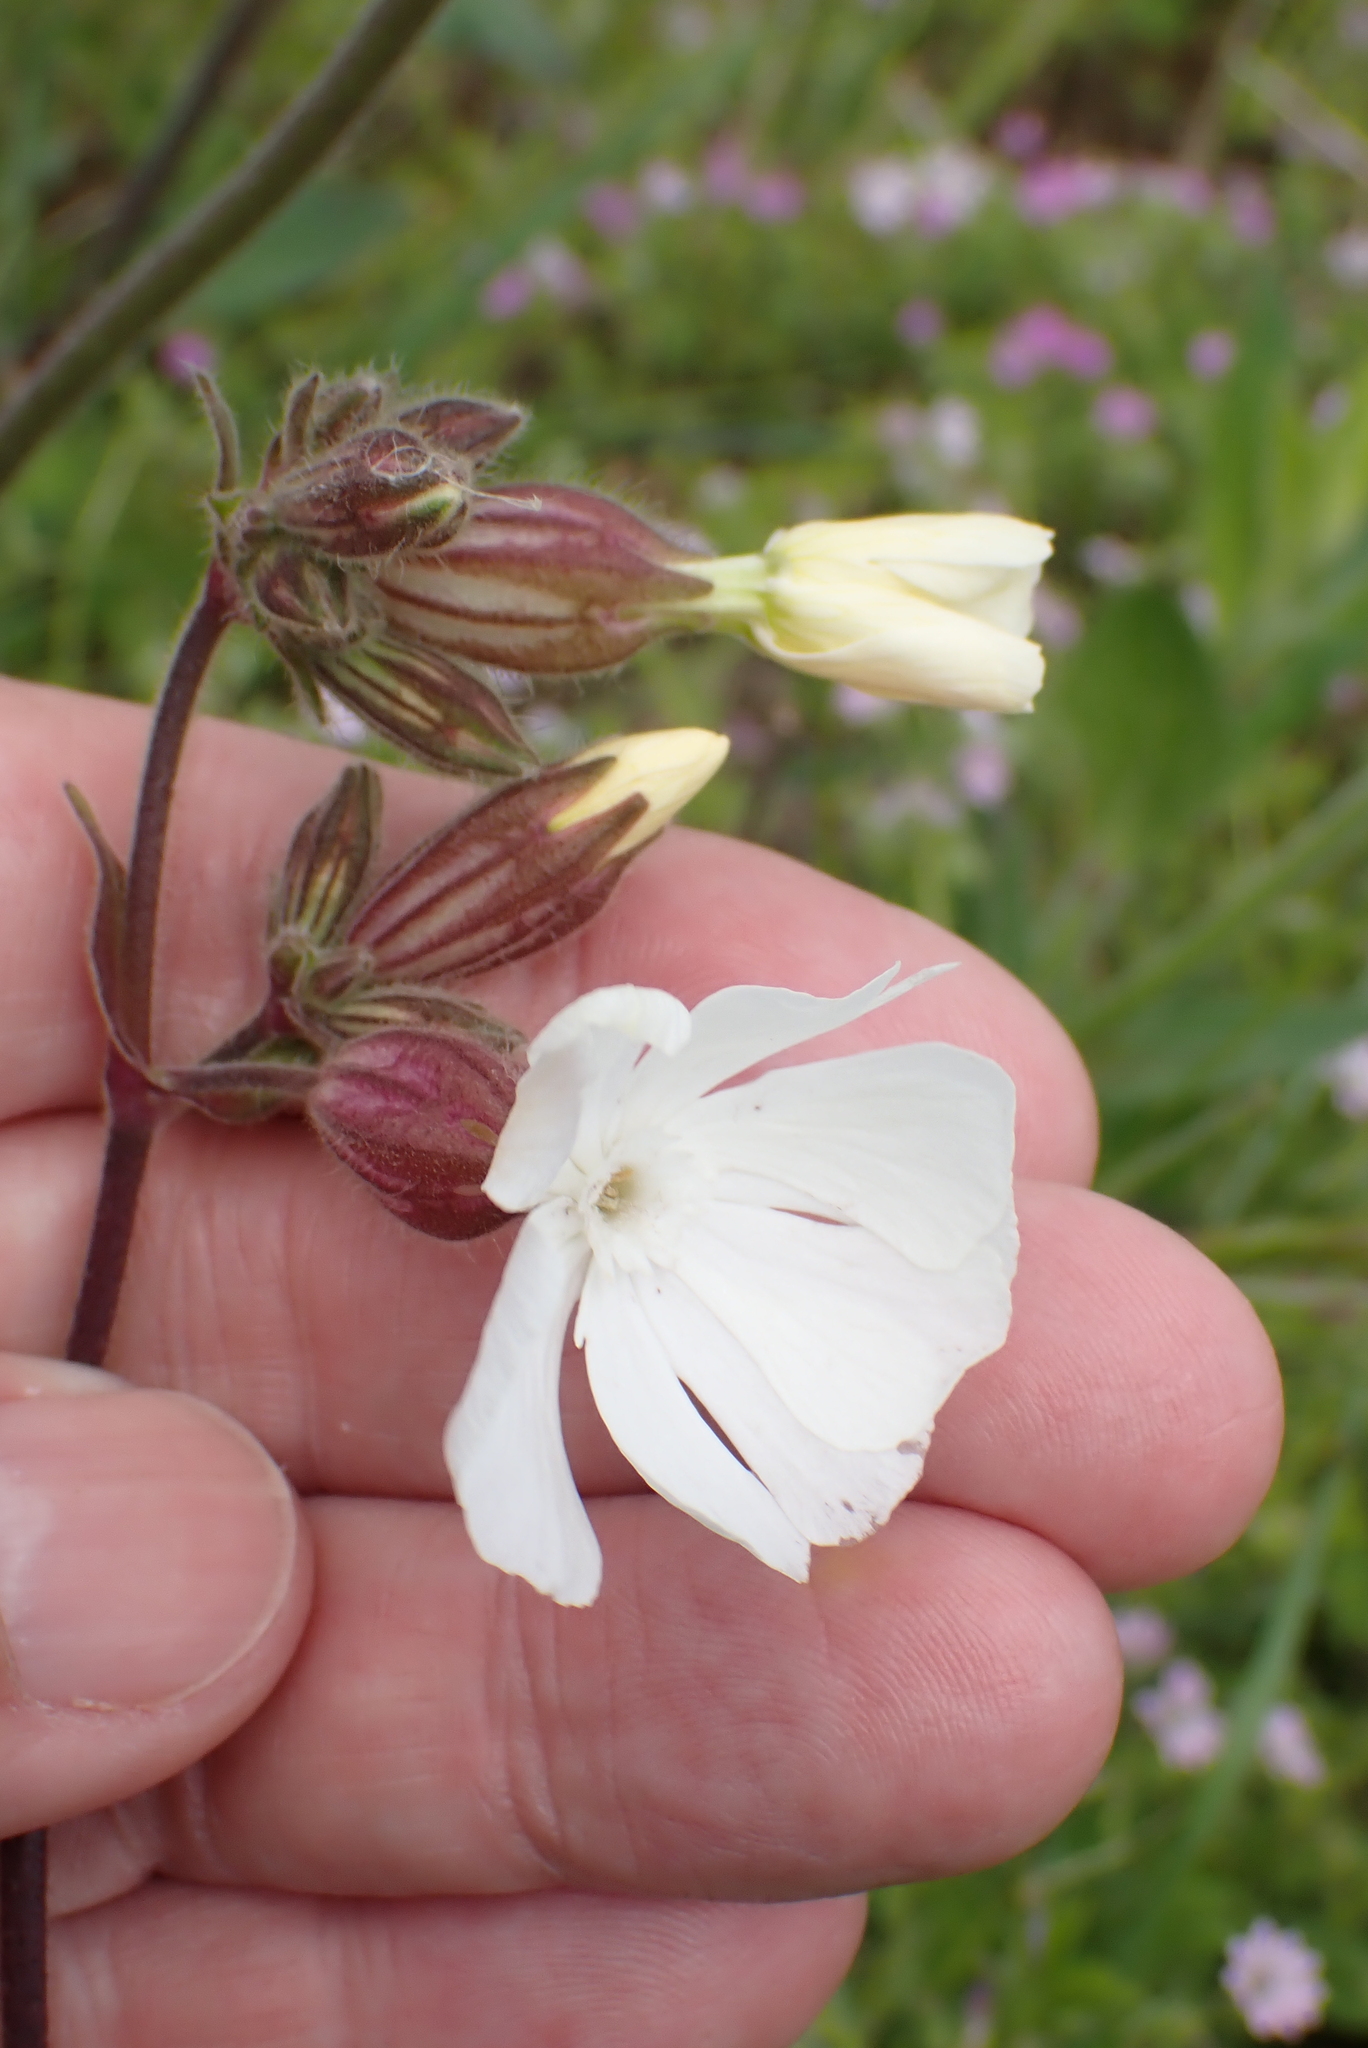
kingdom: Plantae
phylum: Tracheophyta
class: Magnoliopsida
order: Caryophyllales
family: Caryophyllaceae
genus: Silene
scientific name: Silene latifolia
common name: White campion
